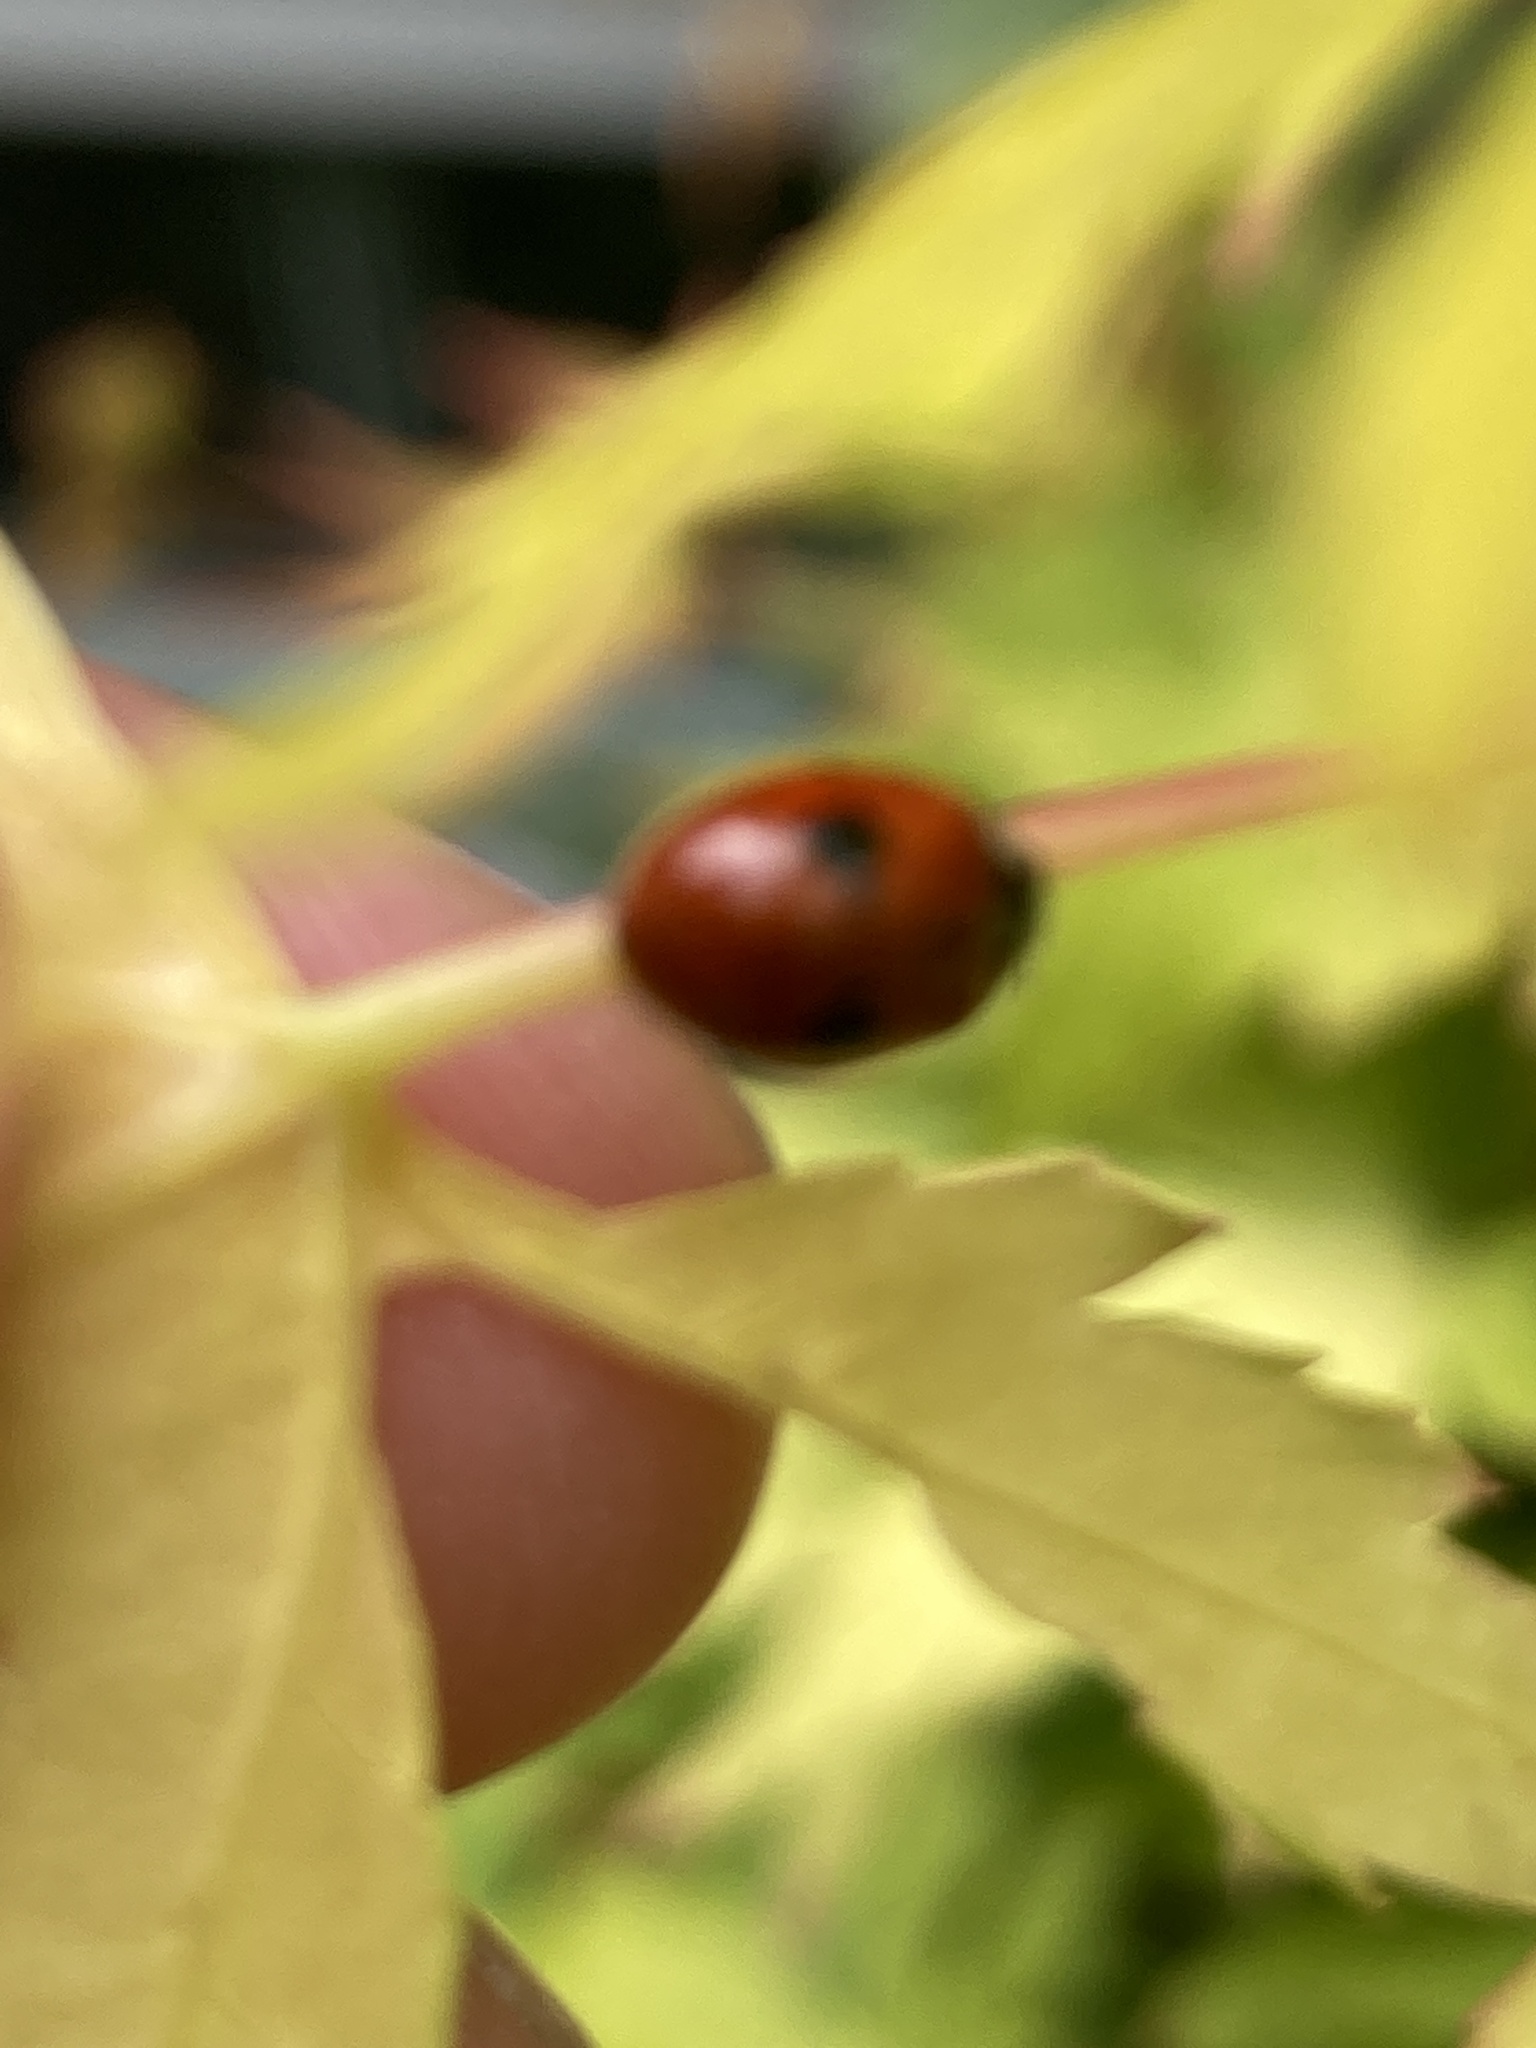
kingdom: Animalia
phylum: Arthropoda
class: Insecta
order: Coleoptera
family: Coccinellidae
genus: Adalia
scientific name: Adalia bipunctata
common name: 2-spot ladybird
